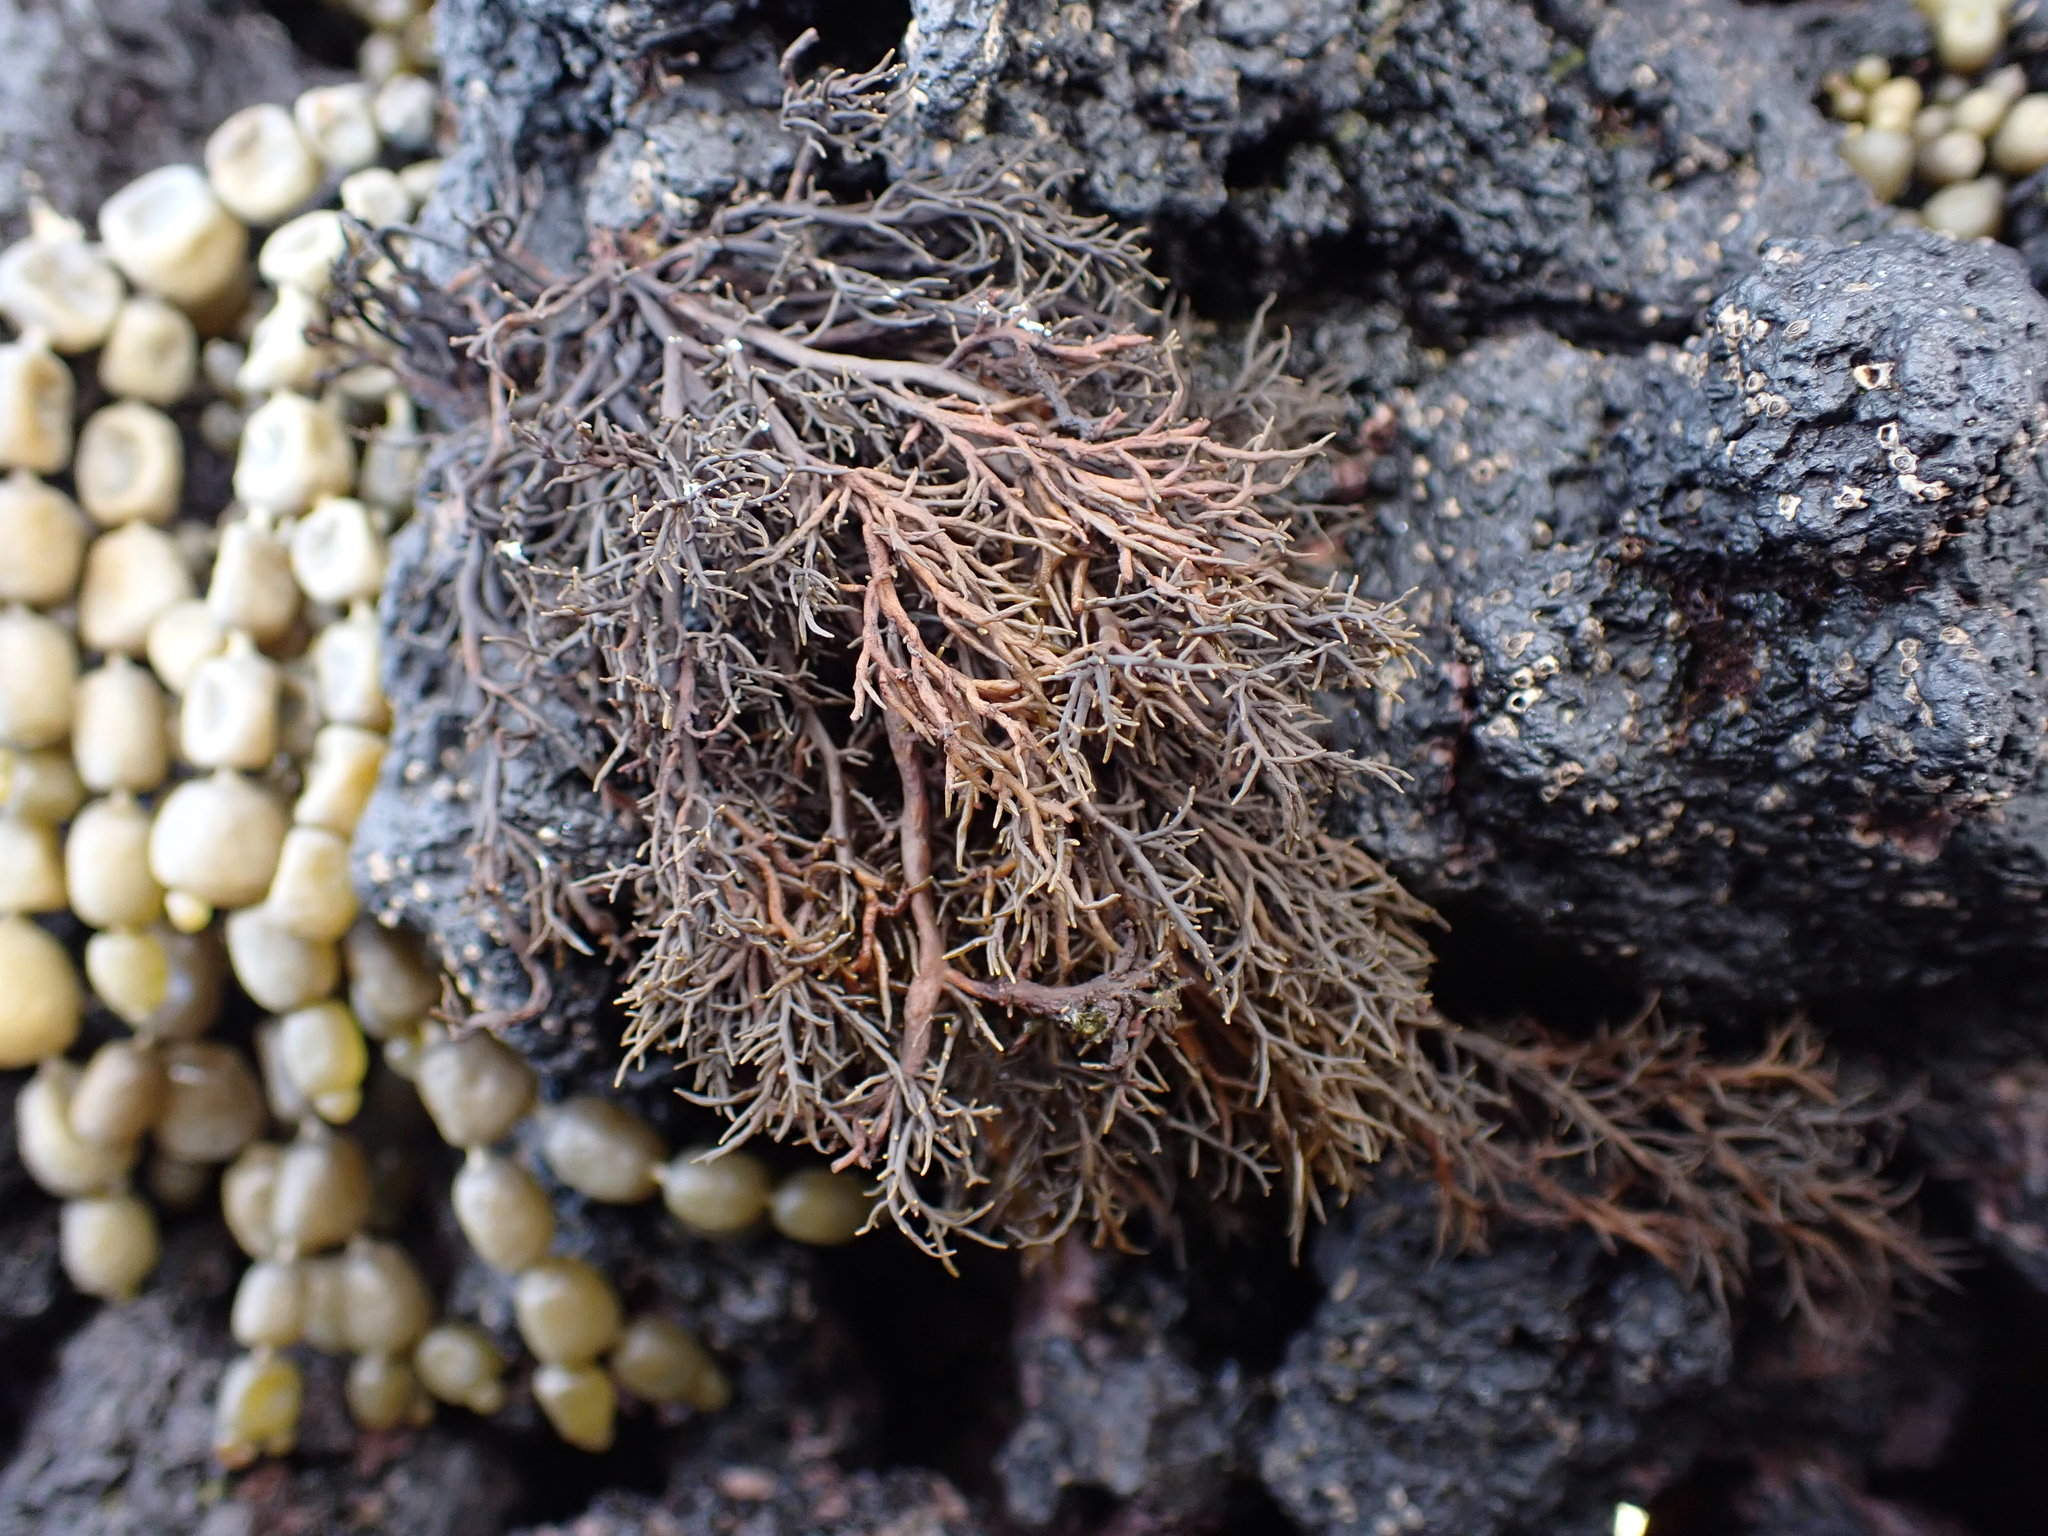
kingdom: Chromista
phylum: Ochrophyta
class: Phaeophyceae
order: Scytothamnales
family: Scytothamnaceae
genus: Scytothamnus
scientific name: Scytothamnus australis
